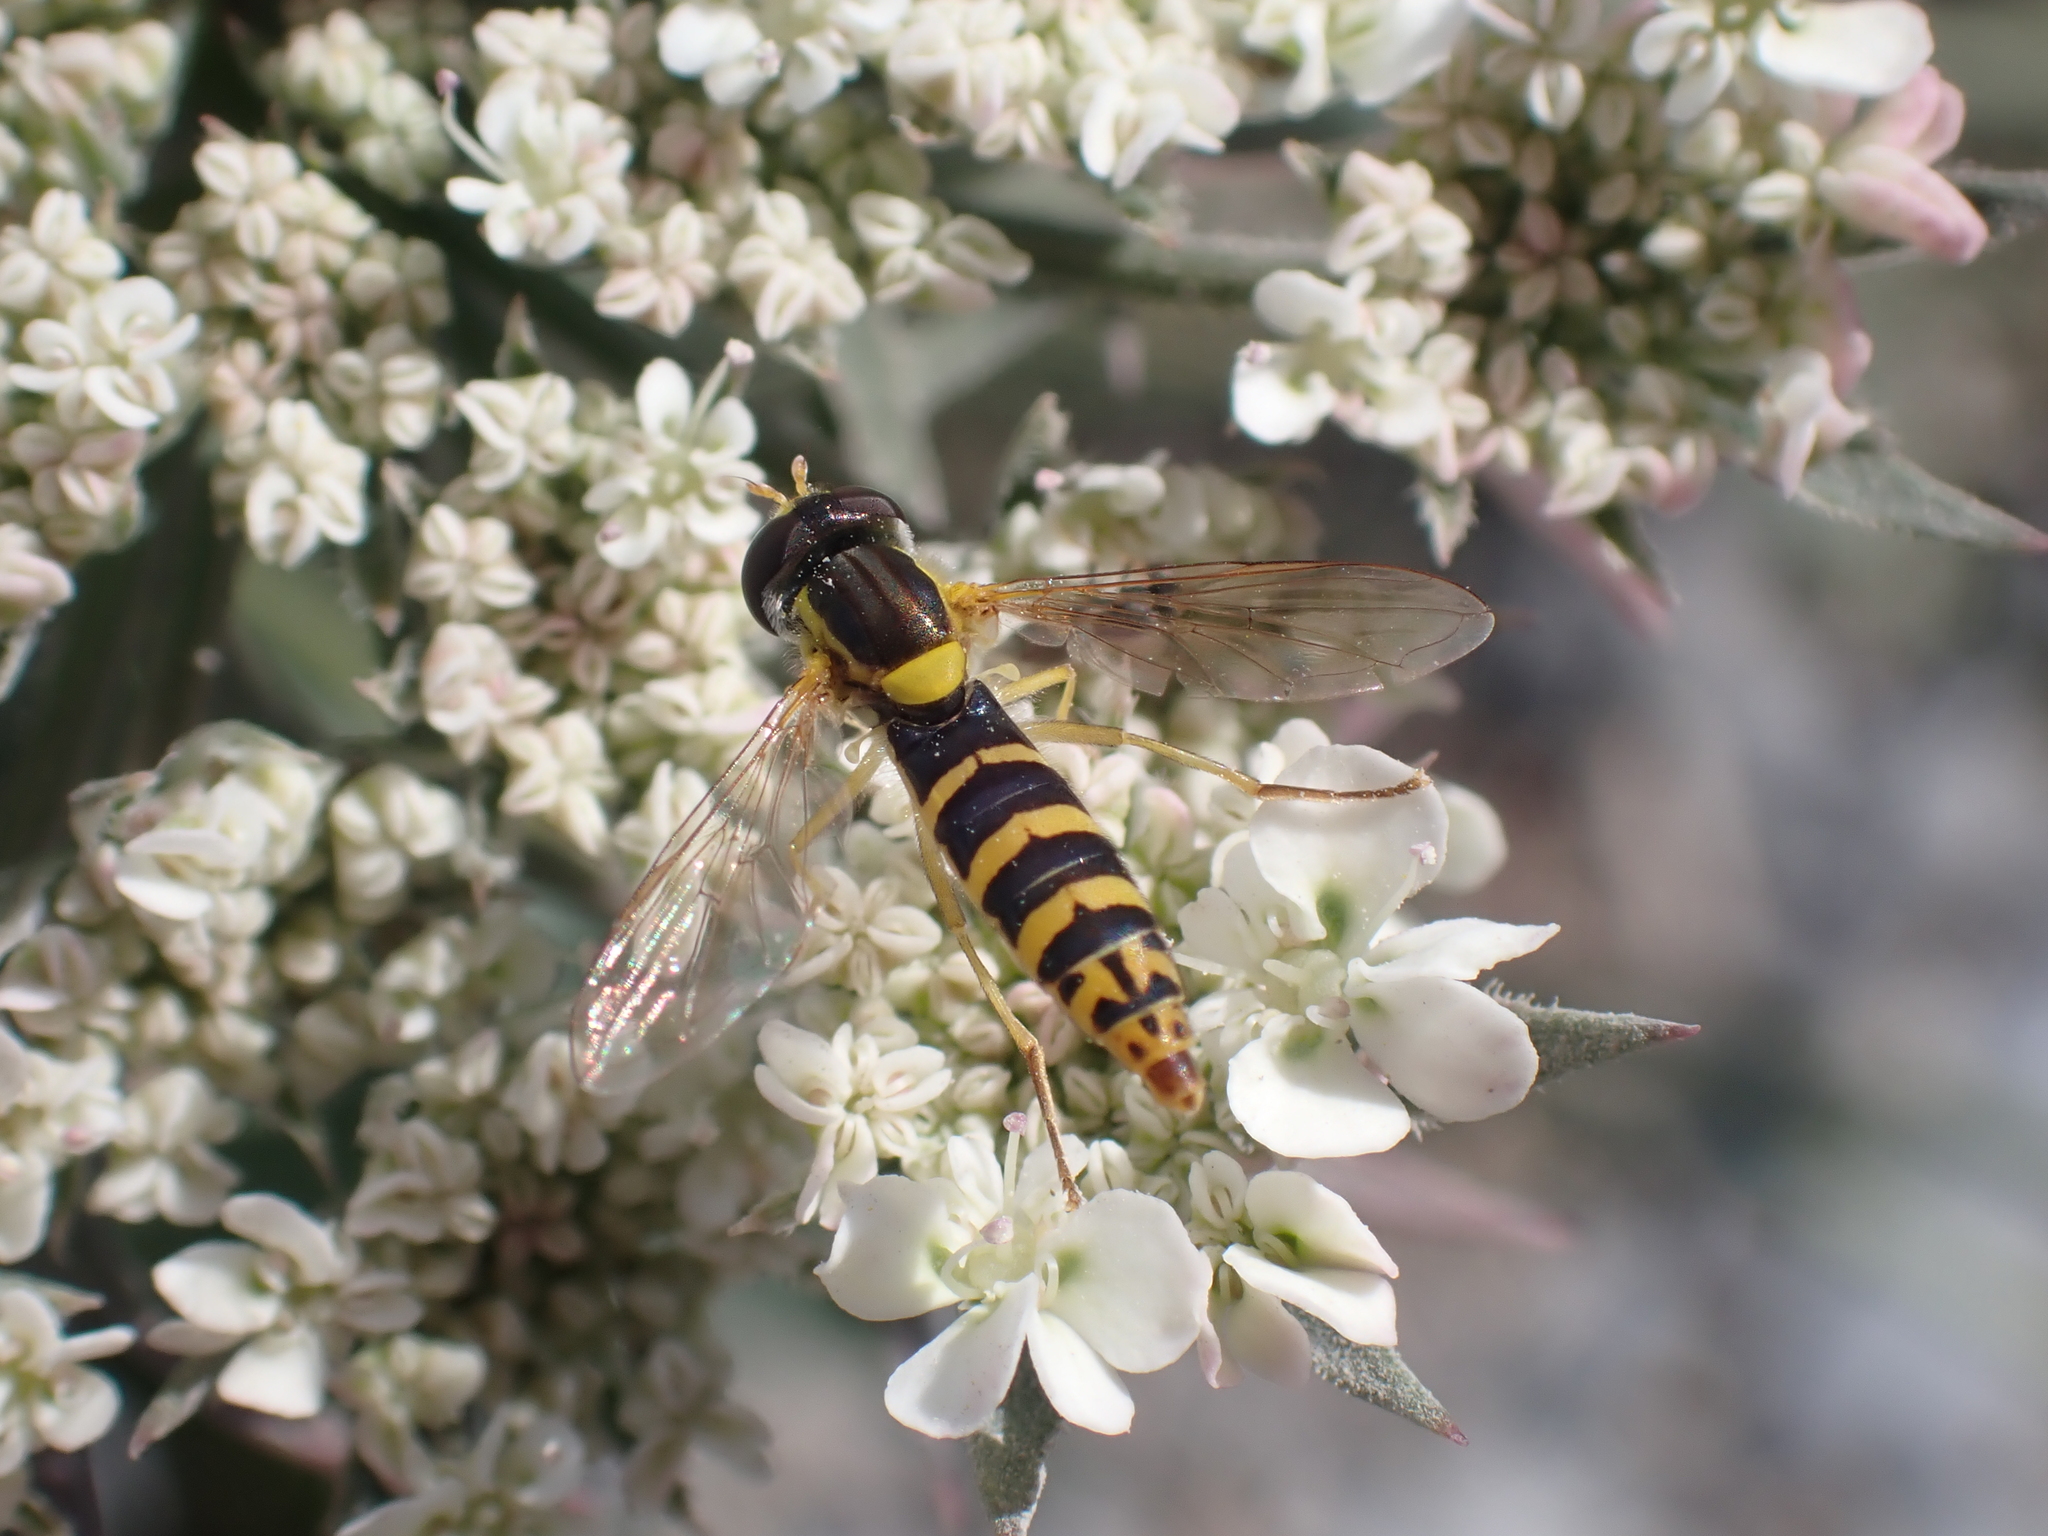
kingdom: Animalia
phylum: Arthropoda
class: Insecta
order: Diptera
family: Syrphidae
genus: Sphaerophoria
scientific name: Sphaerophoria
